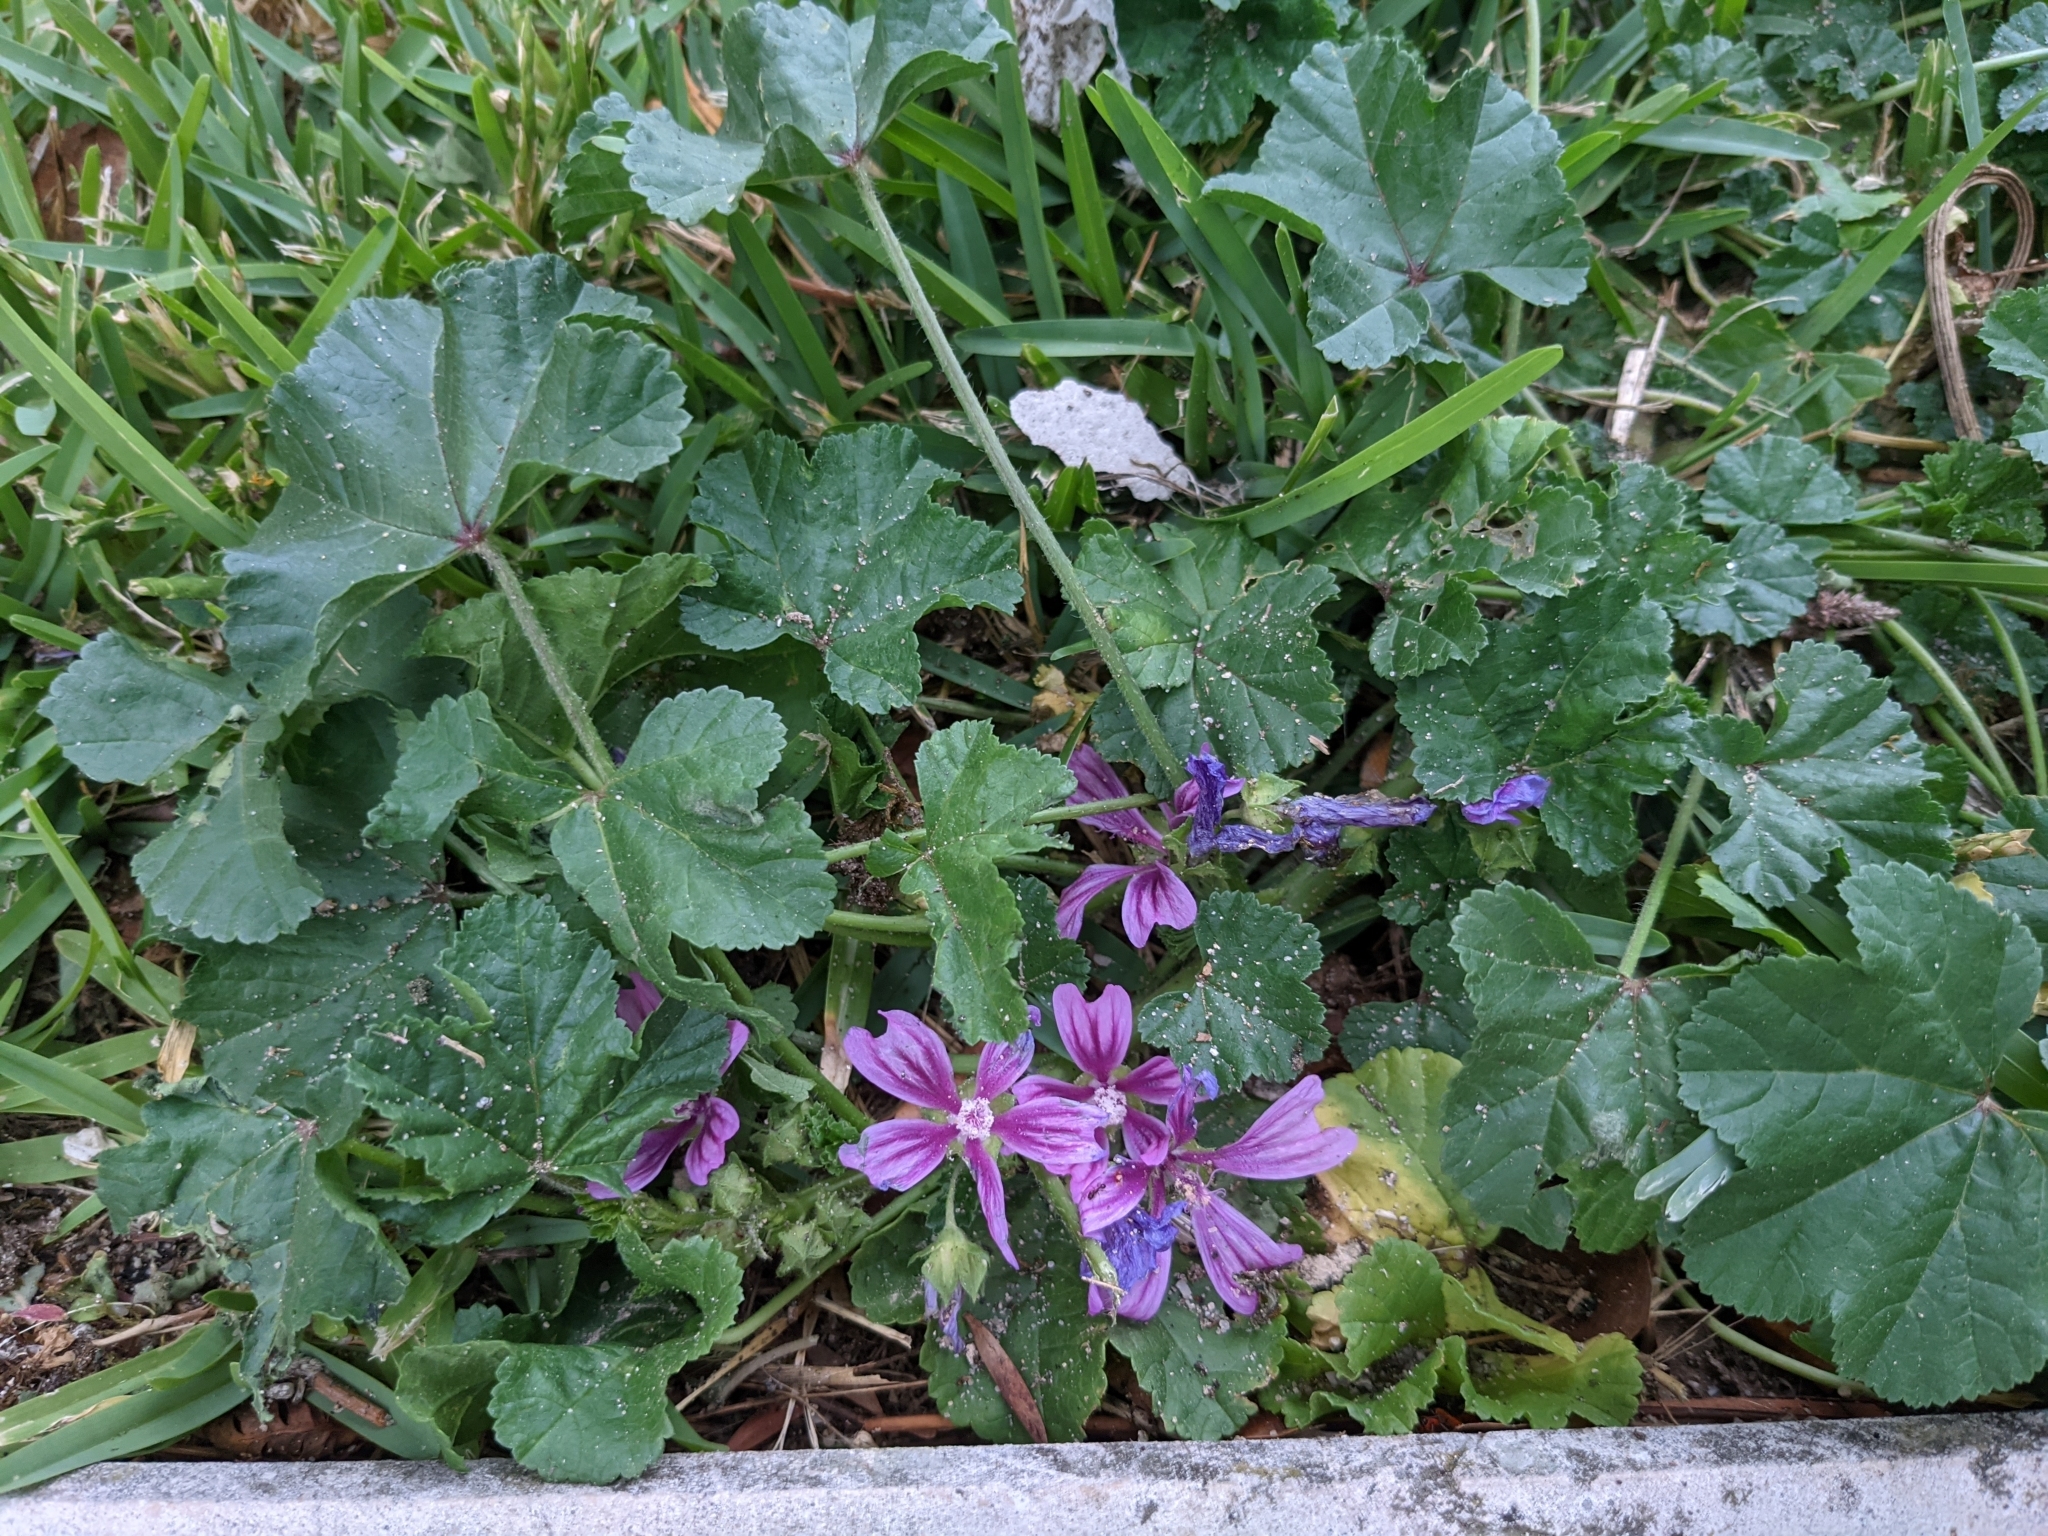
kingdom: Plantae
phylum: Tracheophyta
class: Magnoliopsida
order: Malvales
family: Malvaceae
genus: Malva
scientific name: Malva sylvestris
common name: Common mallow
